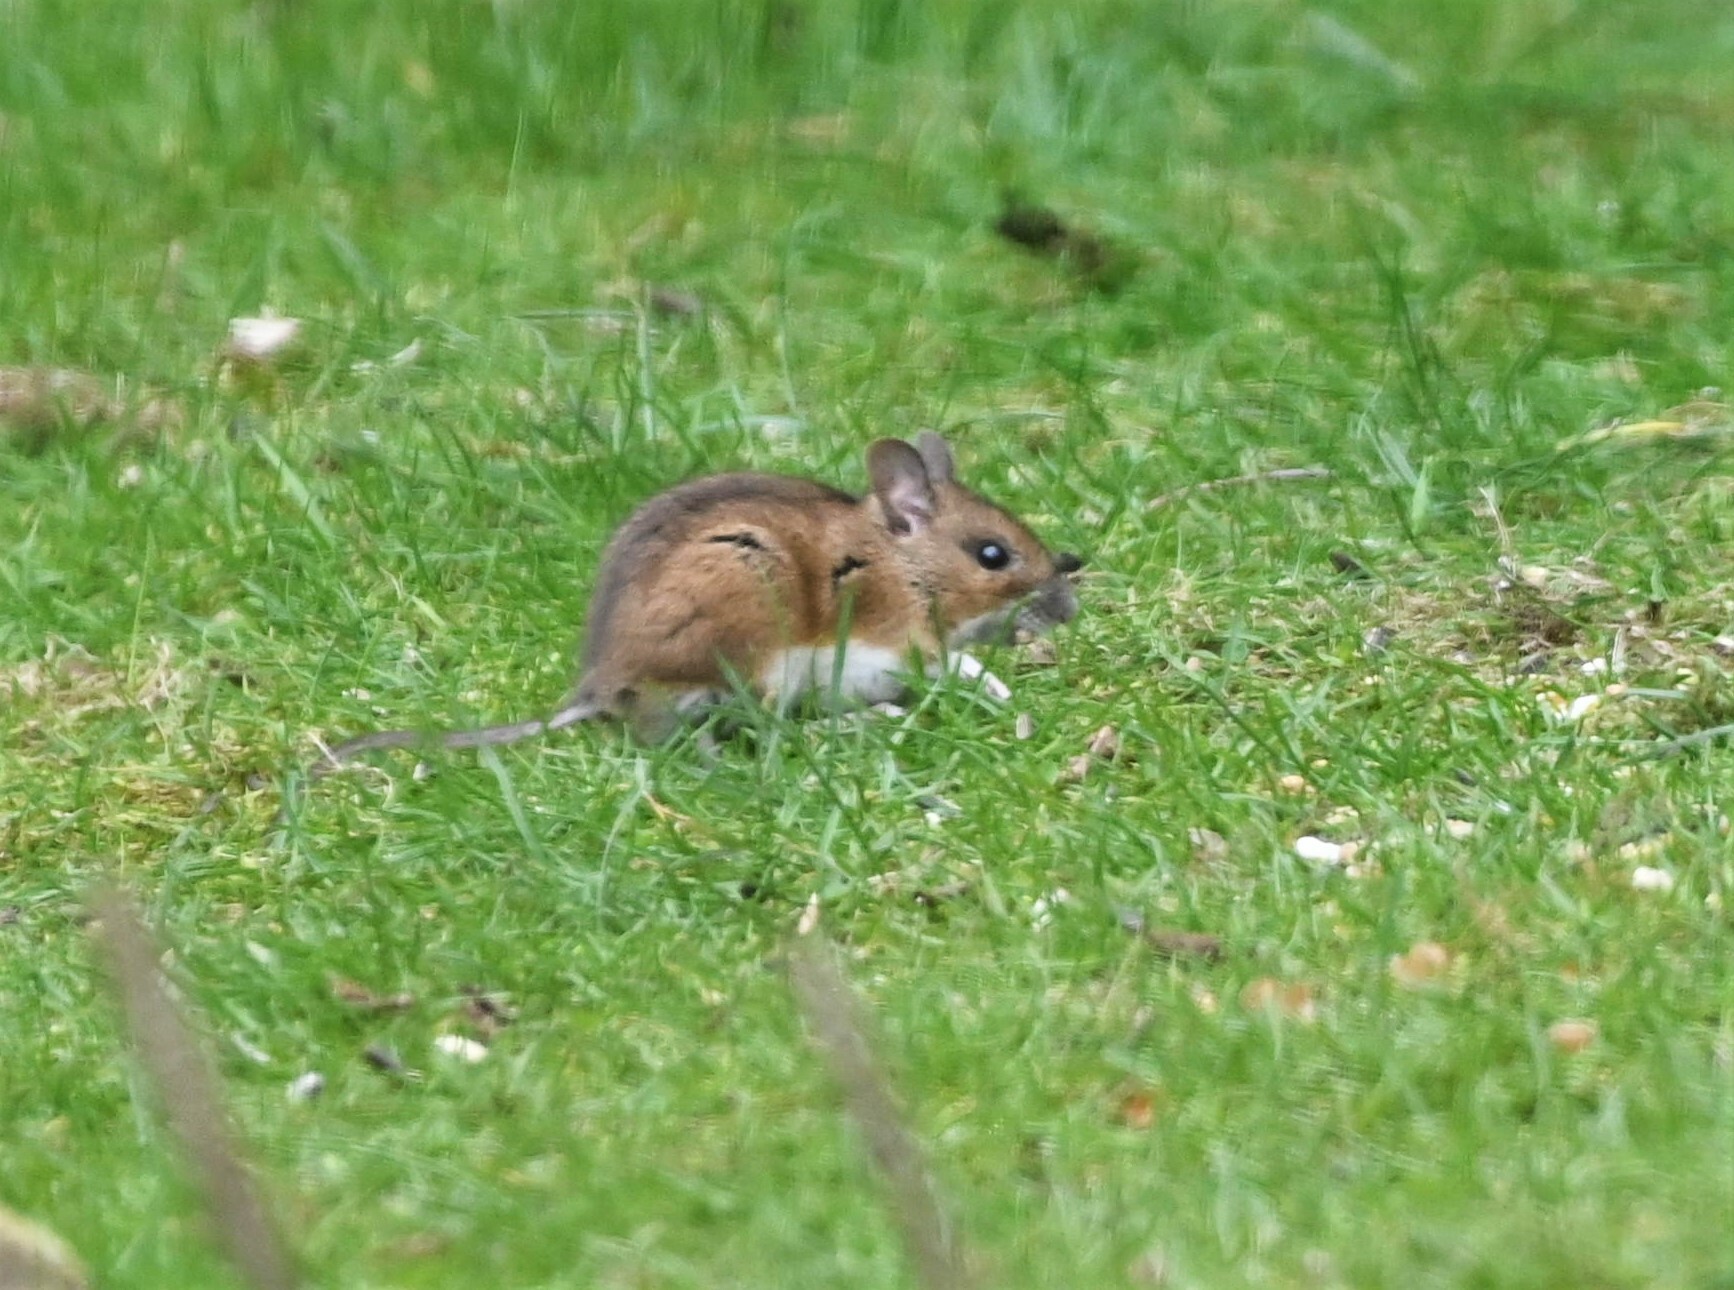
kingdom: Animalia
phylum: Chordata
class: Mammalia
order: Rodentia
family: Muridae
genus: Apodemus
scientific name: Apodemus sylvaticus
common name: Wood mouse
